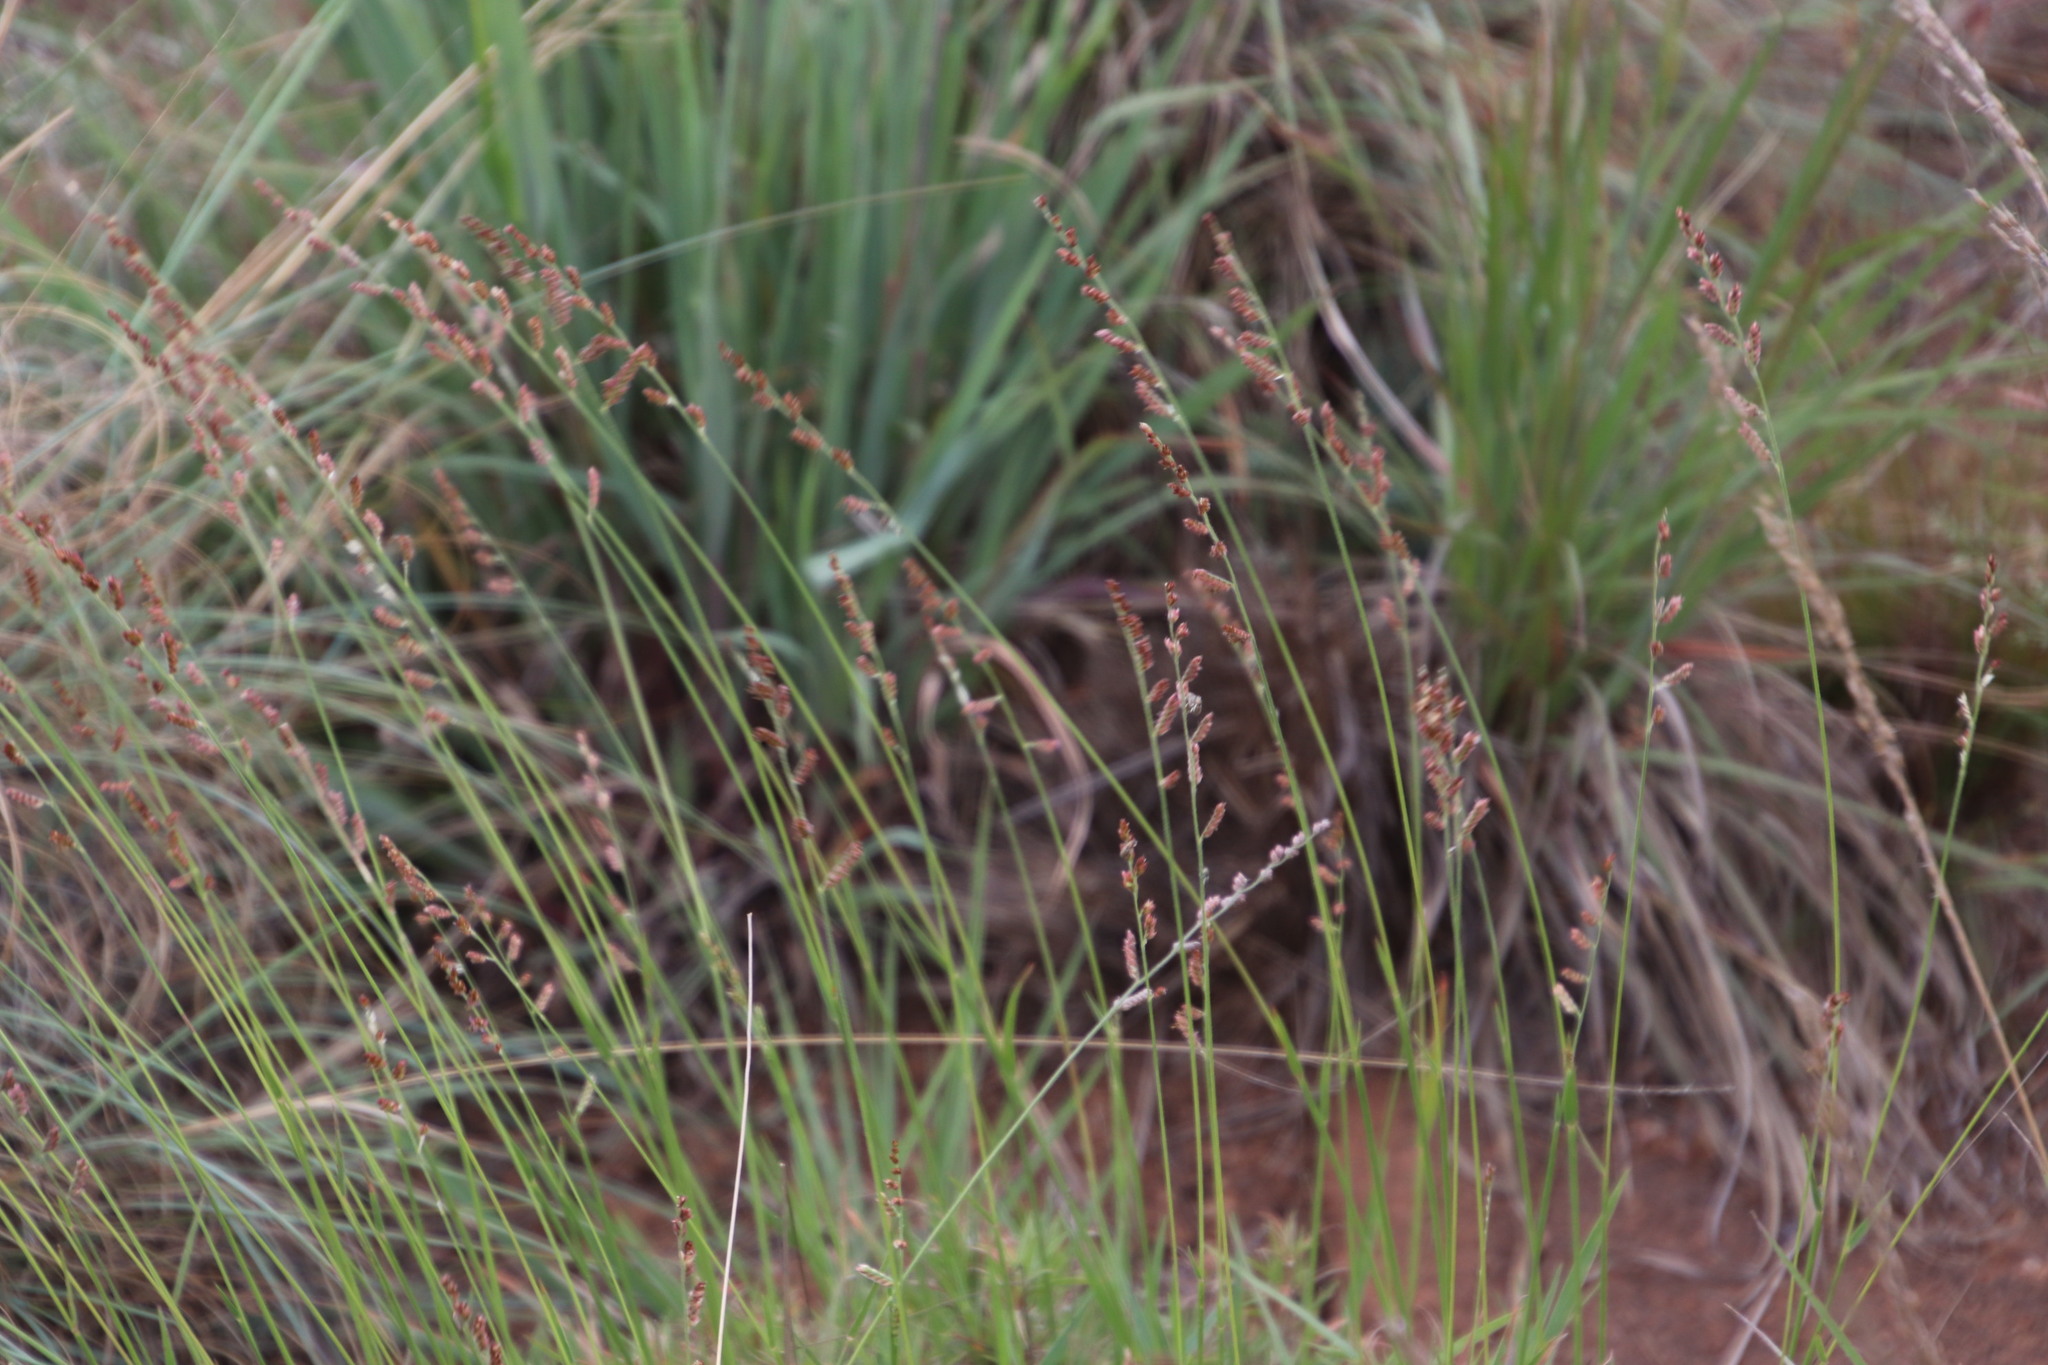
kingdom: Plantae
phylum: Tracheophyta
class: Liliopsida
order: Poales
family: Poaceae
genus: Urochloa
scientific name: Urochloa serrata
